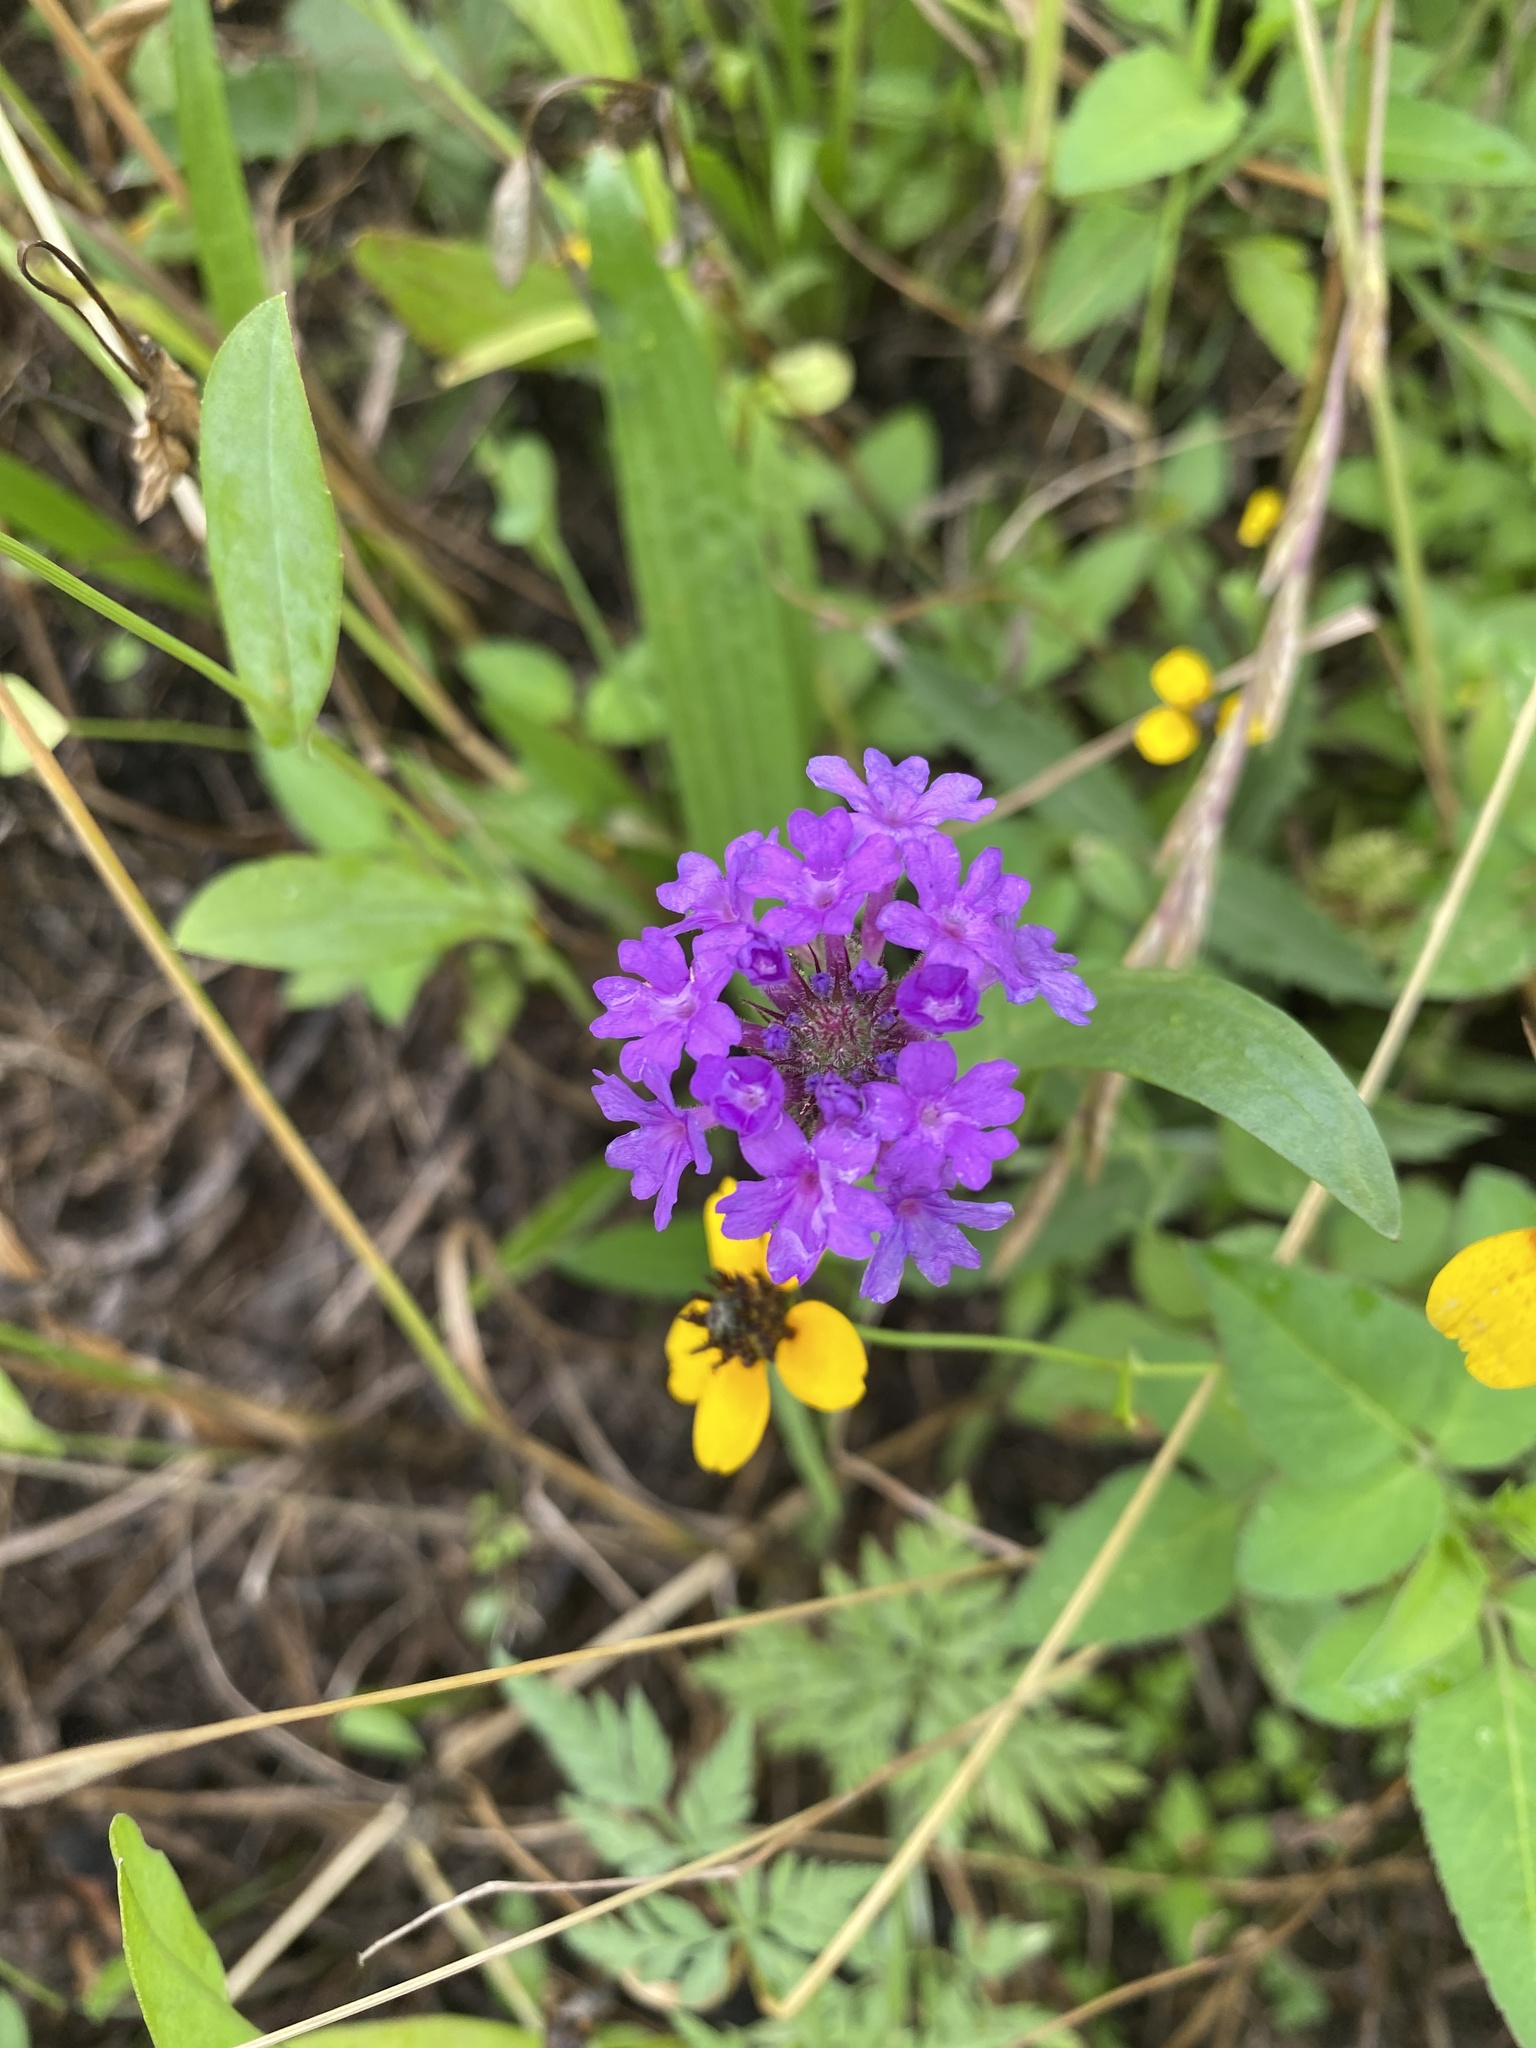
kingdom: Plantae
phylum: Tracheophyta
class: Magnoliopsida
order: Lamiales
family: Verbenaceae
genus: Verbena
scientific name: Verbena rigida
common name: Slender vervain
